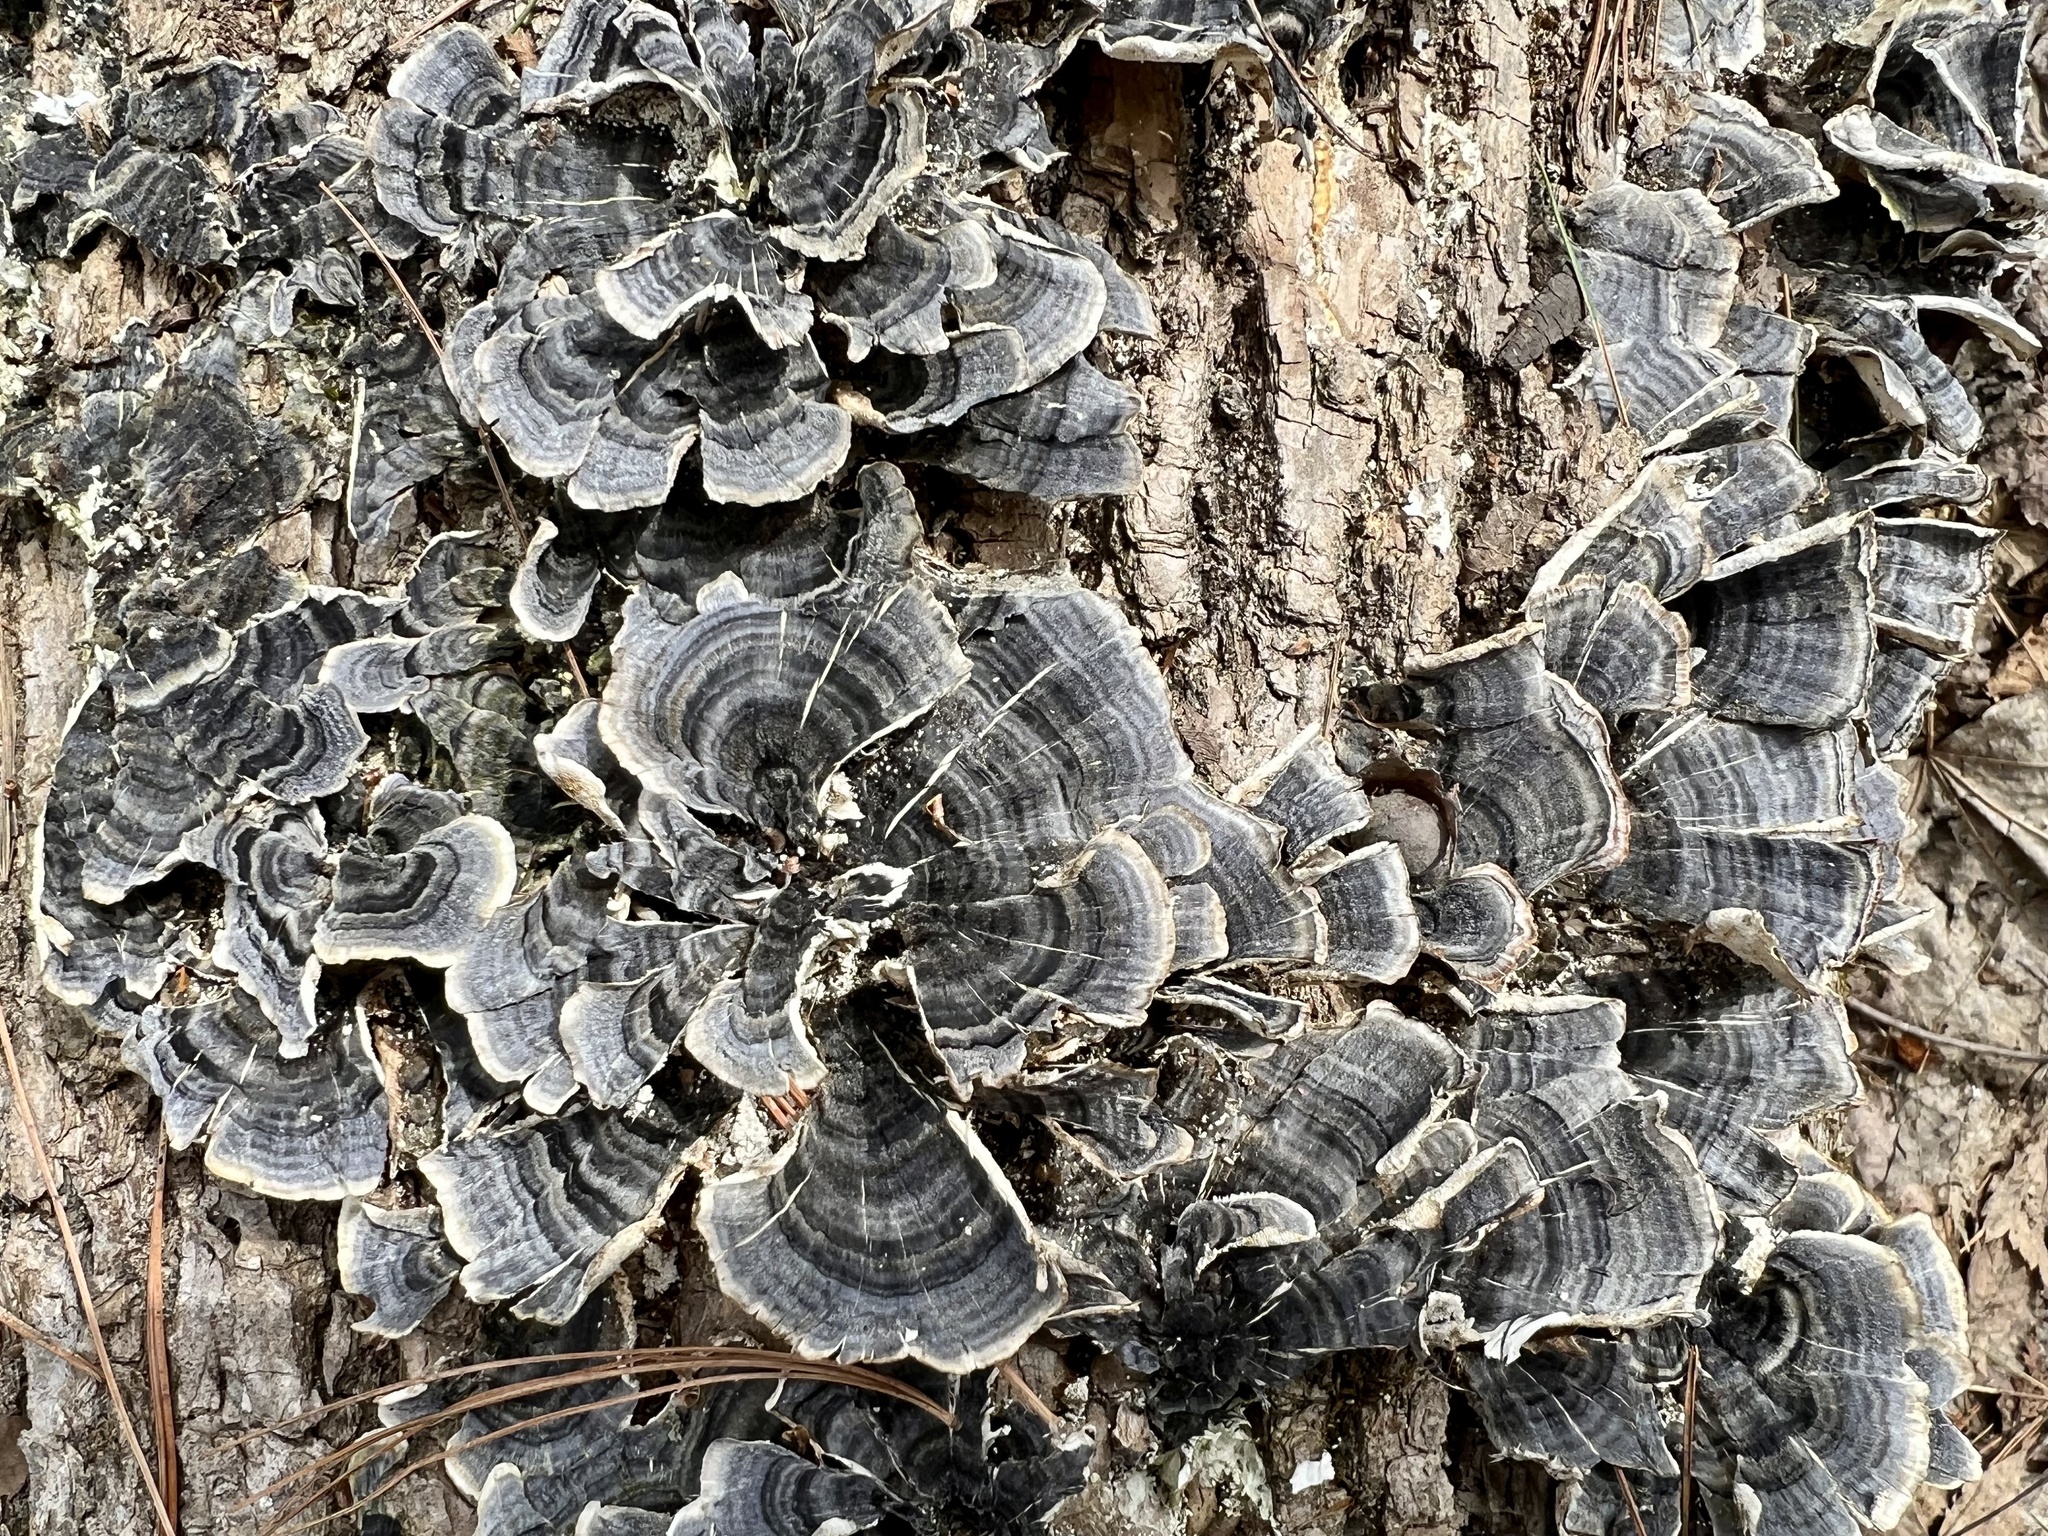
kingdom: Fungi
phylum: Basidiomycota
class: Agaricomycetes
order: Polyporales
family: Polyporaceae
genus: Trametes
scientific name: Trametes versicolor
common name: Turkeytail
